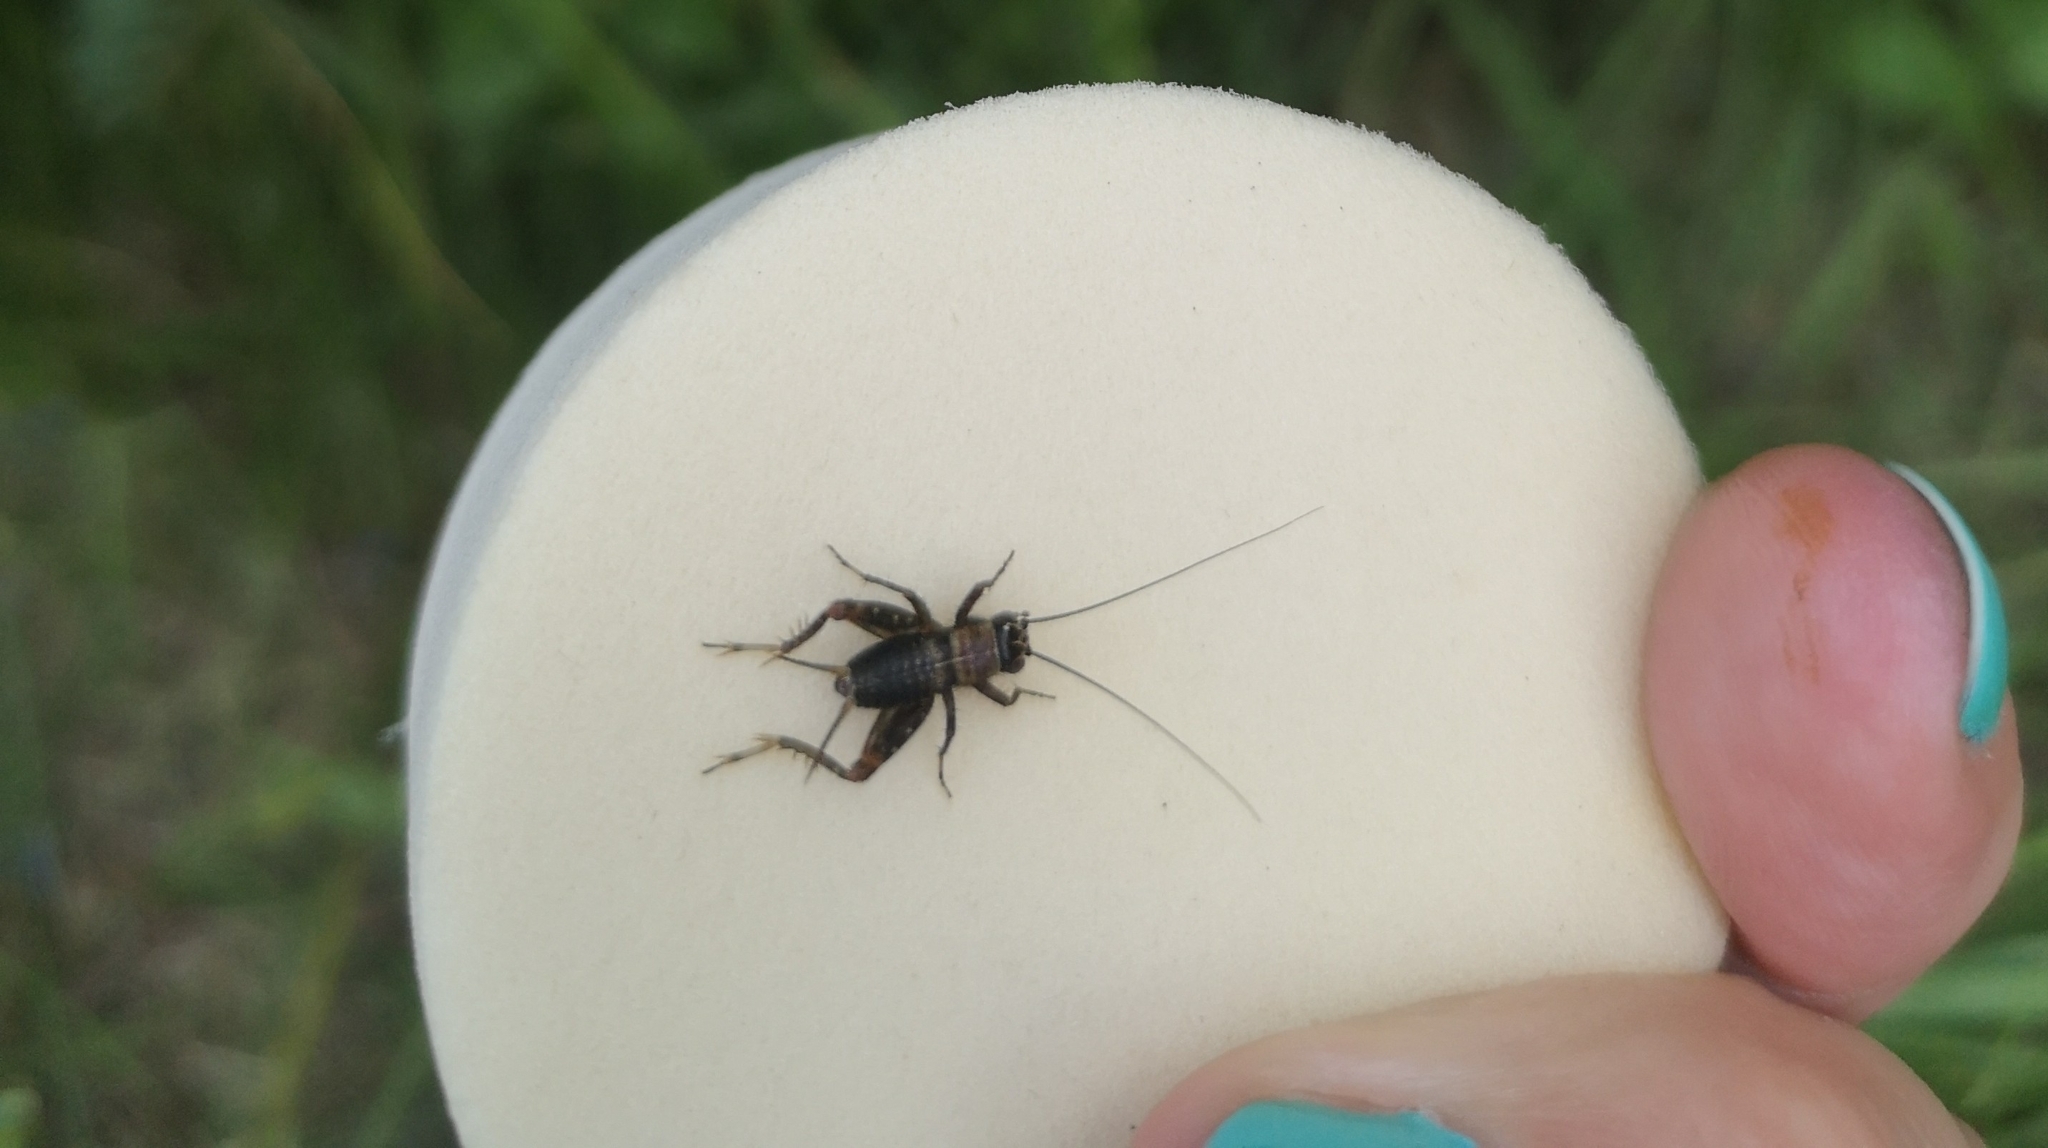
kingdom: Animalia
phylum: Arthropoda
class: Insecta
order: Orthoptera
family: Trigonidiidae
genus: Nemobius
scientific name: Nemobius sylvestris
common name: Wood-cricket
